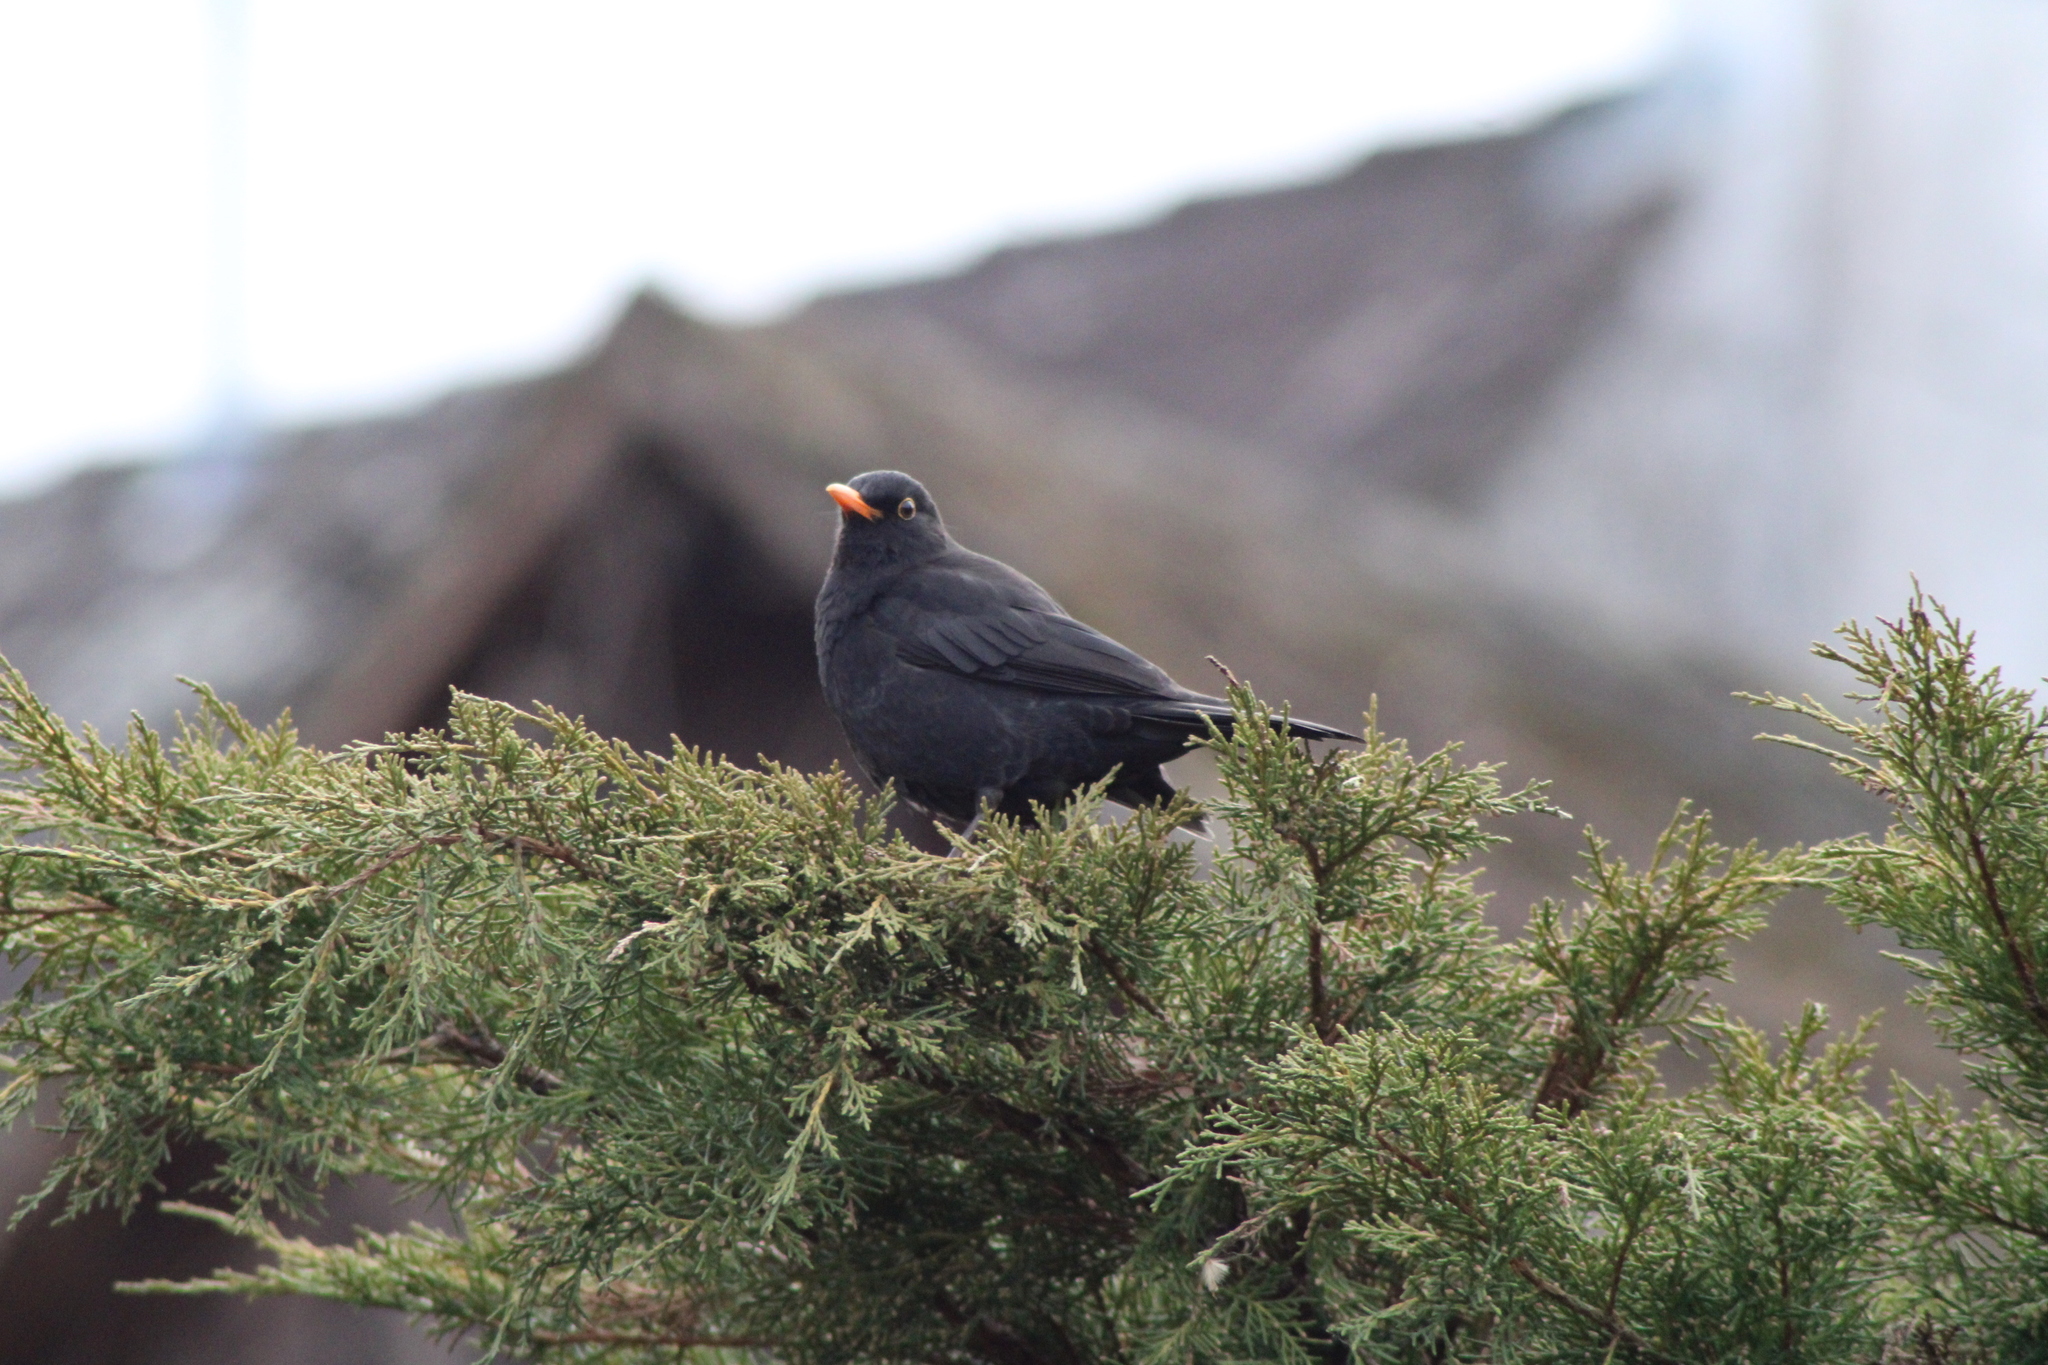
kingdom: Animalia
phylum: Chordata
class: Aves
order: Passeriformes
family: Turdidae
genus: Turdus
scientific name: Turdus merula
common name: Common blackbird
